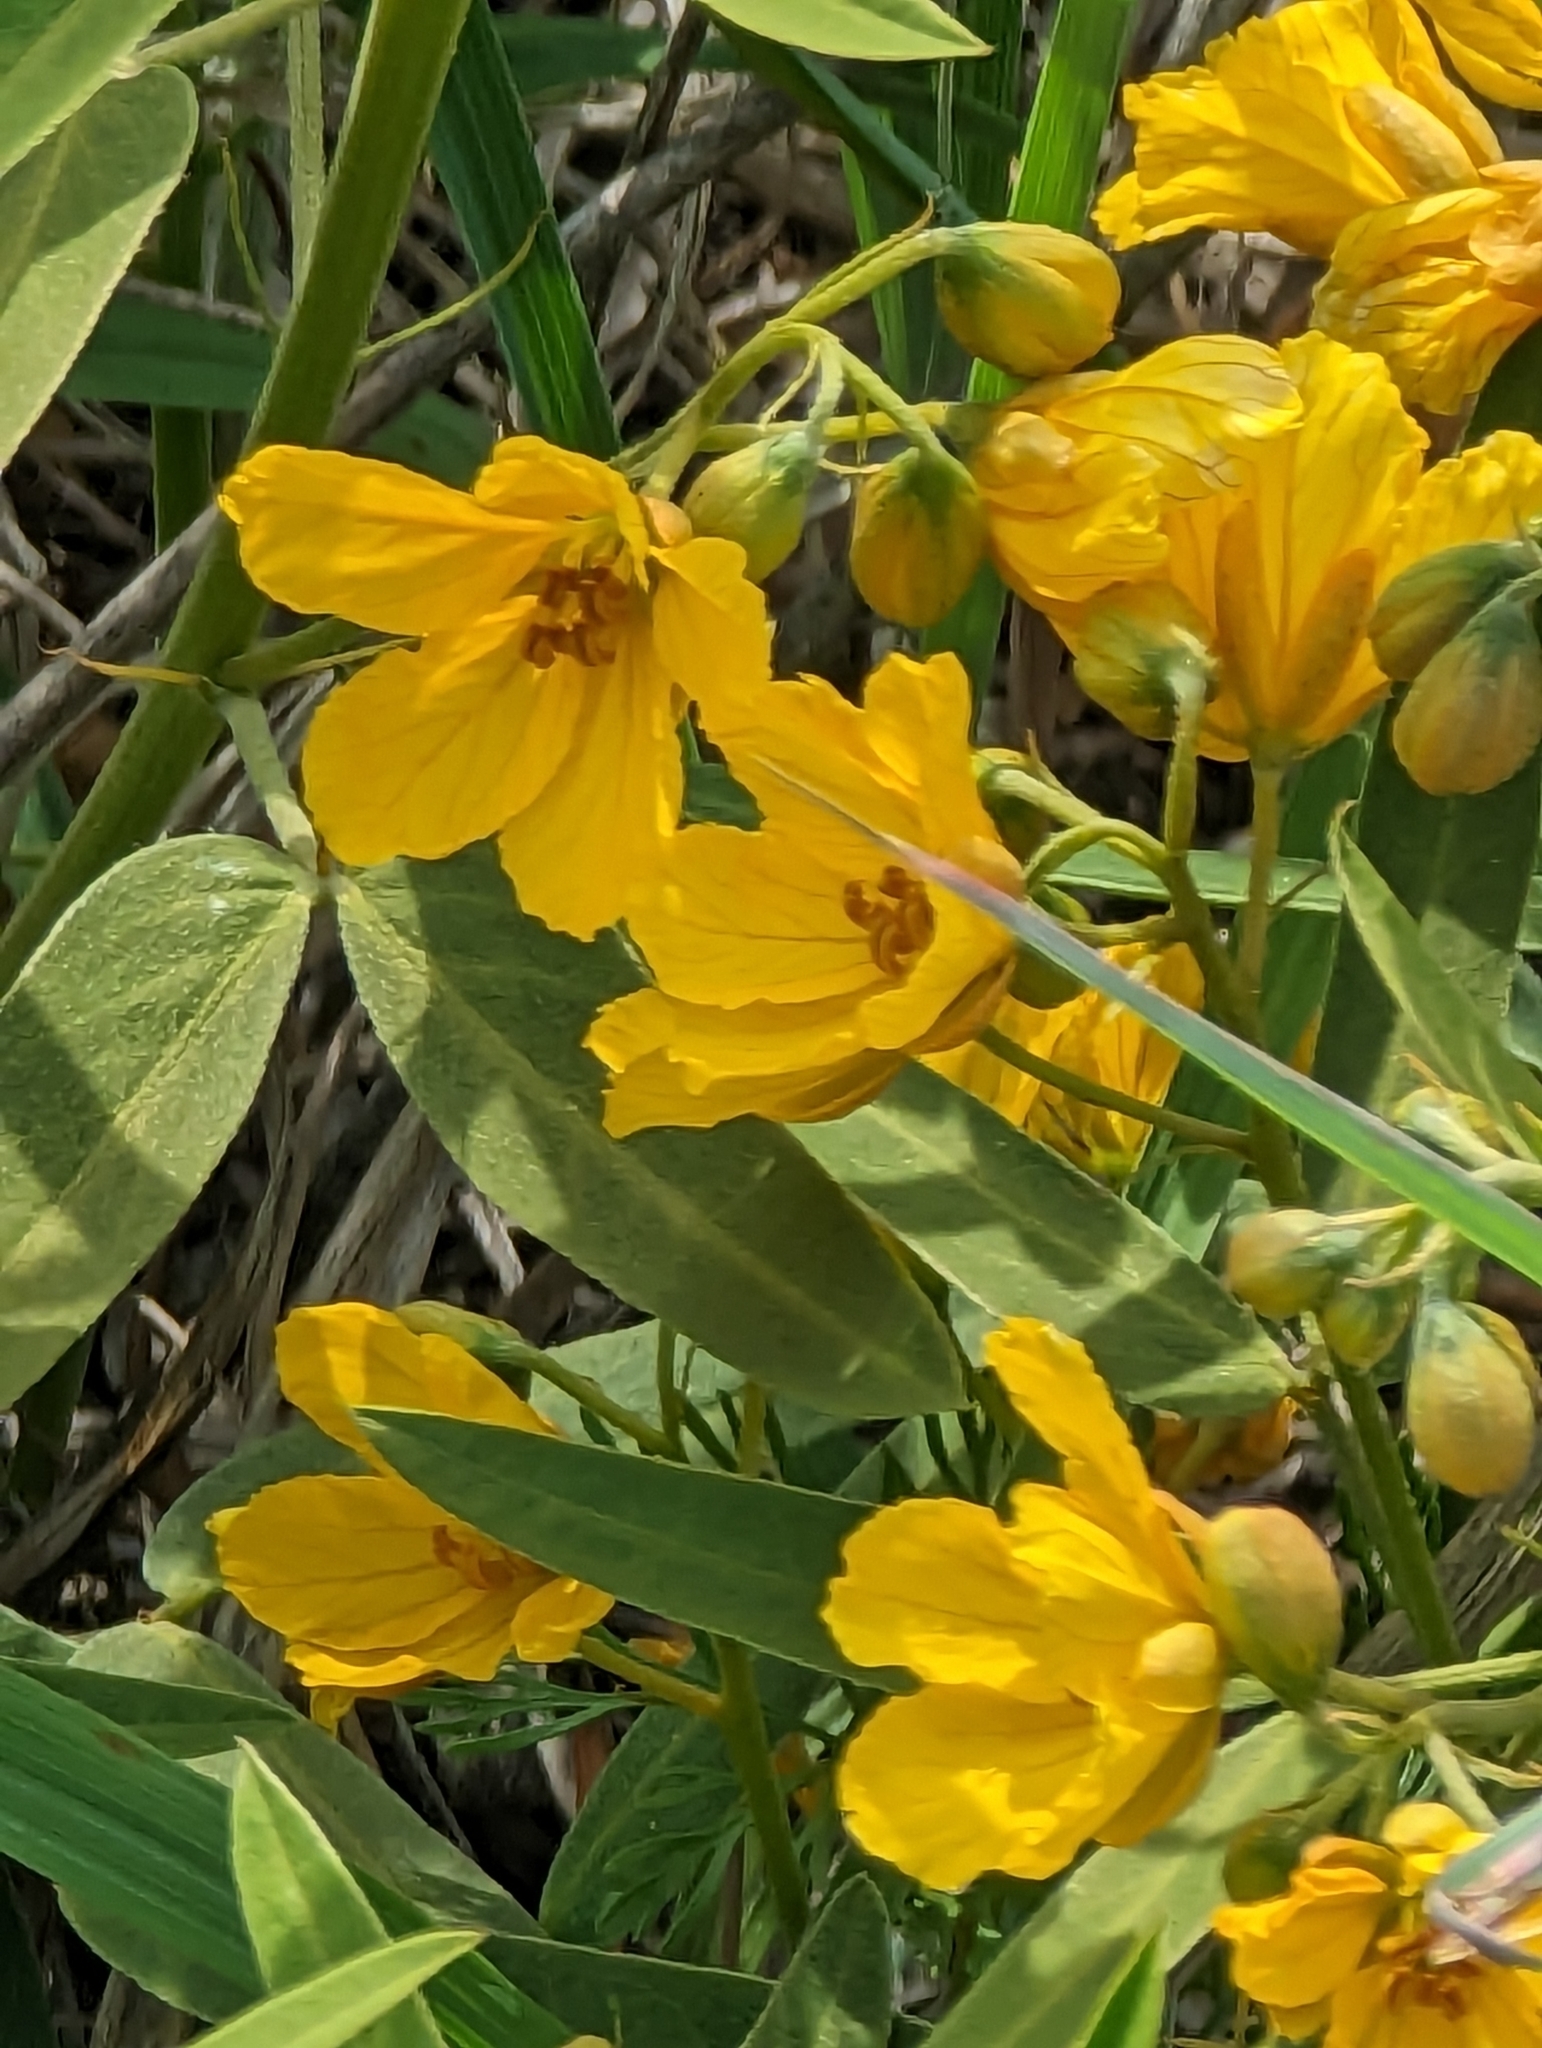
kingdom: Plantae
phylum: Tracheophyta
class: Magnoliopsida
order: Fabales
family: Fabaceae
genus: Senna
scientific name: Senna roemeriana
